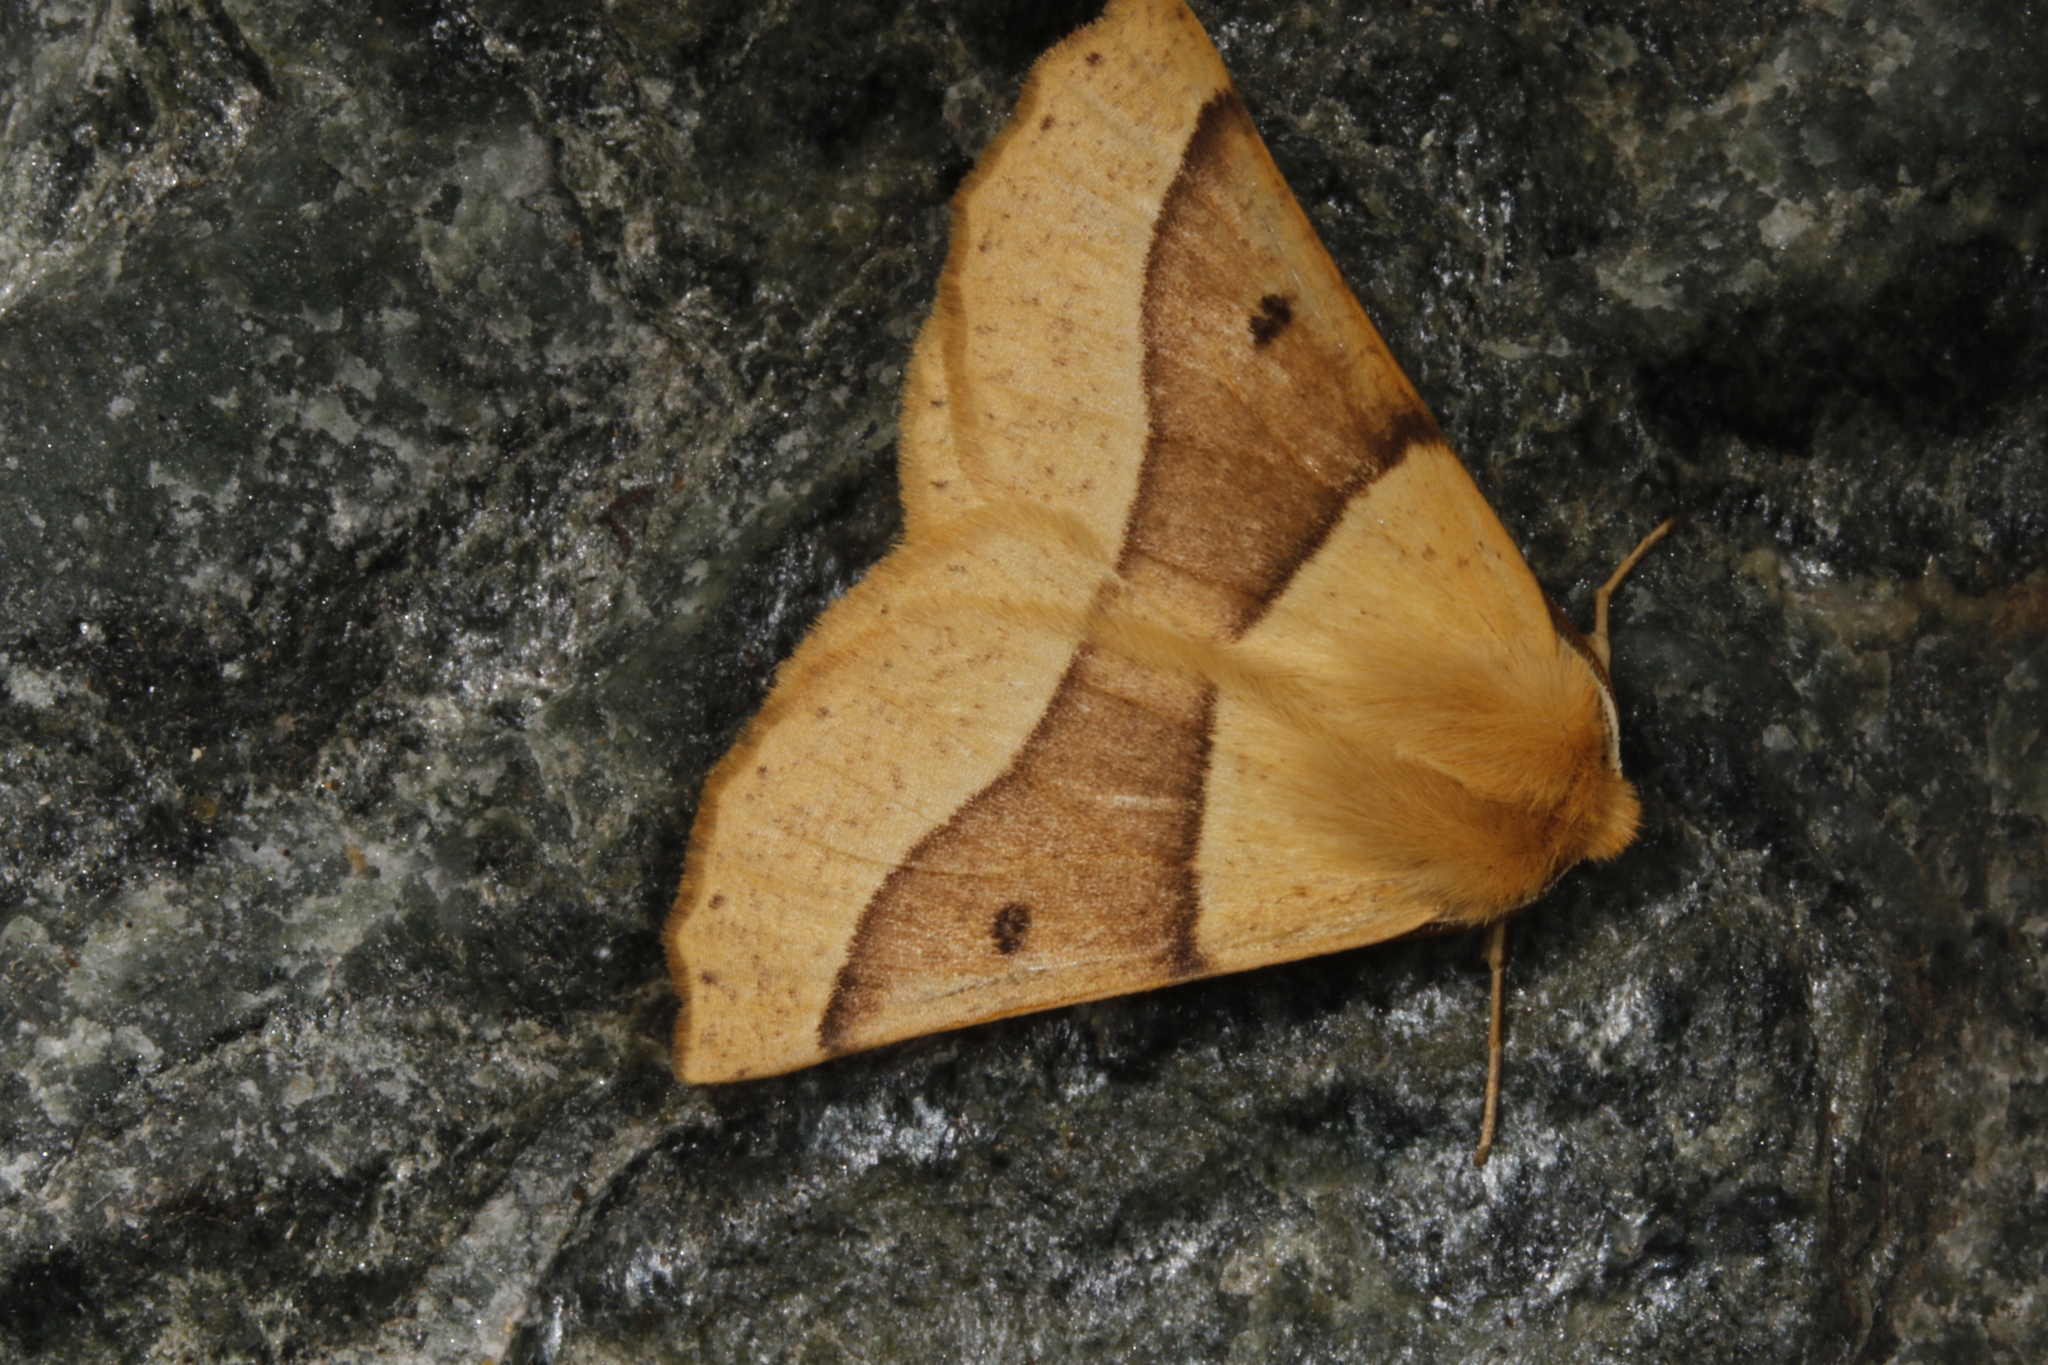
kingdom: Animalia
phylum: Arthropoda
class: Insecta
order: Lepidoptera
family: Geometridae
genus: Crocallis
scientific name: Crocallis elinguaria
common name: Scalloped oak
